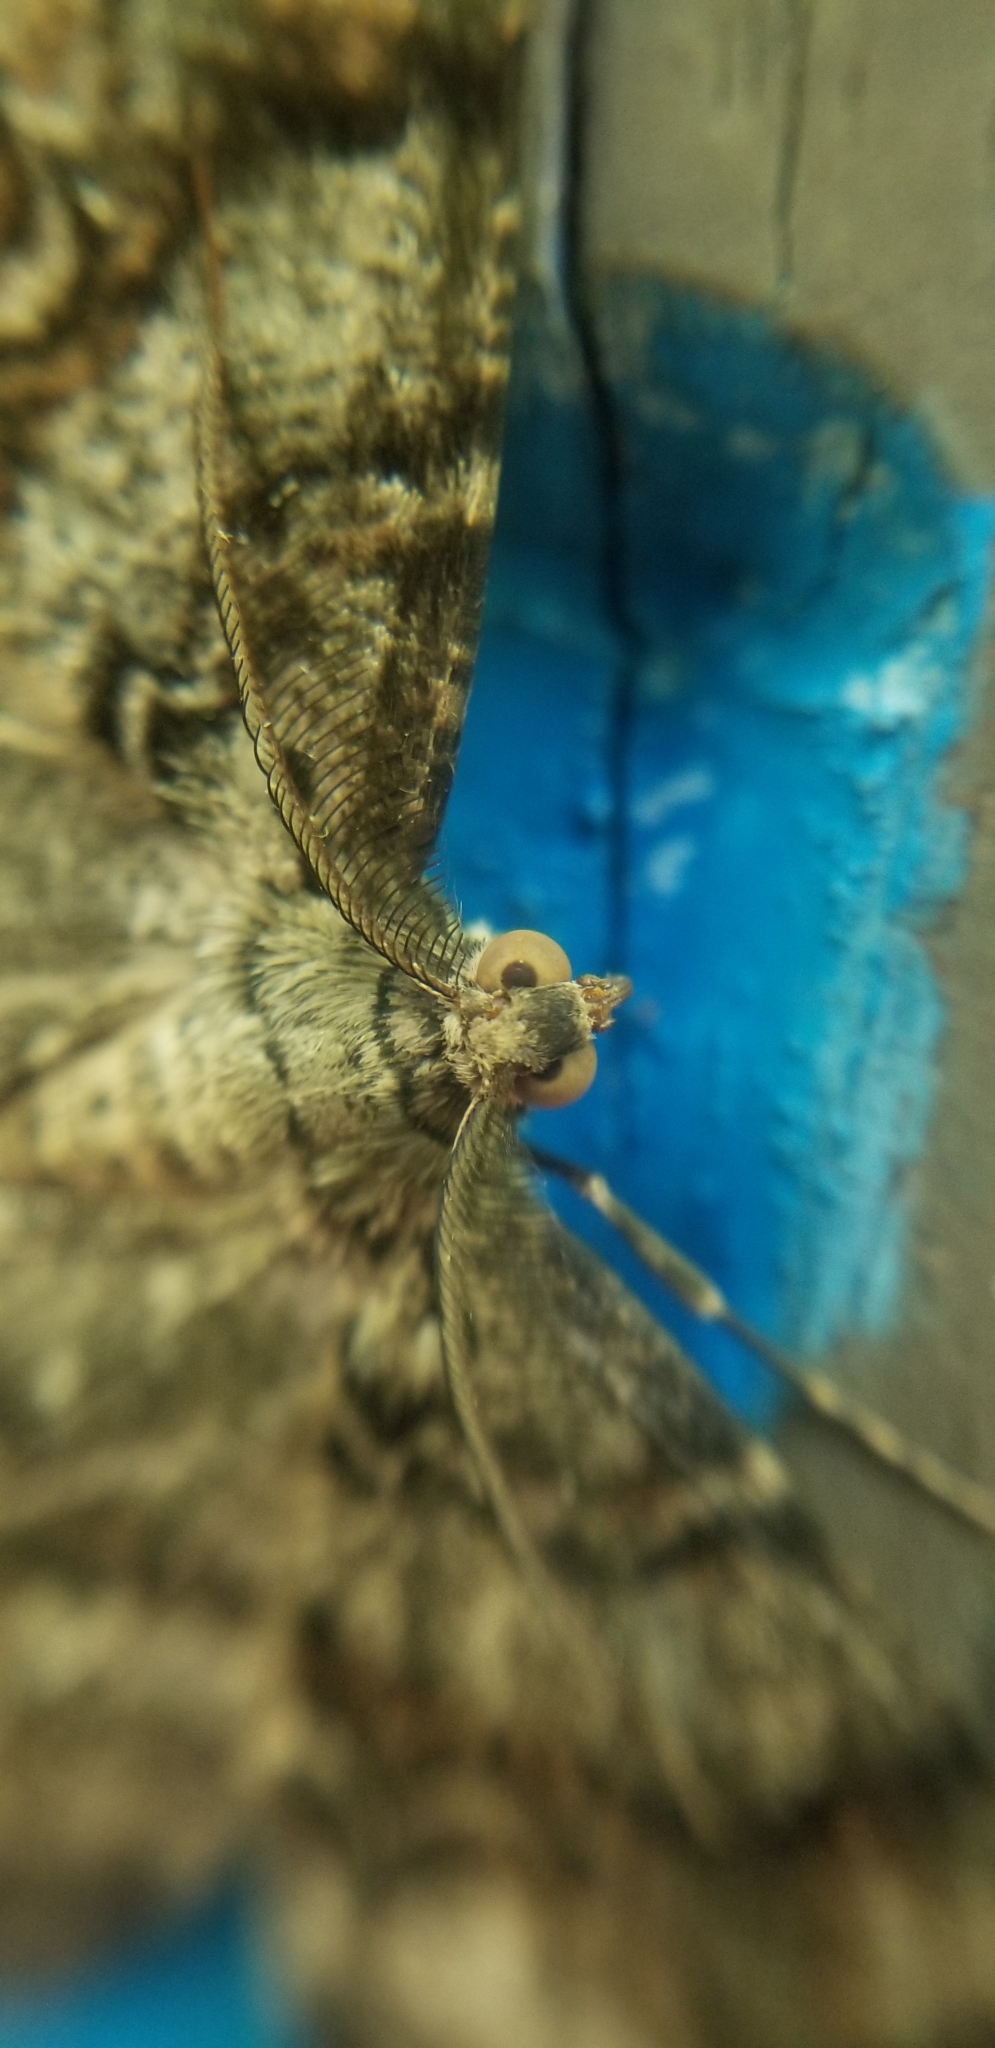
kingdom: Animalia
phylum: Arthropoda
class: Insecta
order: Lepidoptera
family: Geometridae
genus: Epimecis
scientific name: Epimecis hortaria
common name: Tulip-tree beauty
